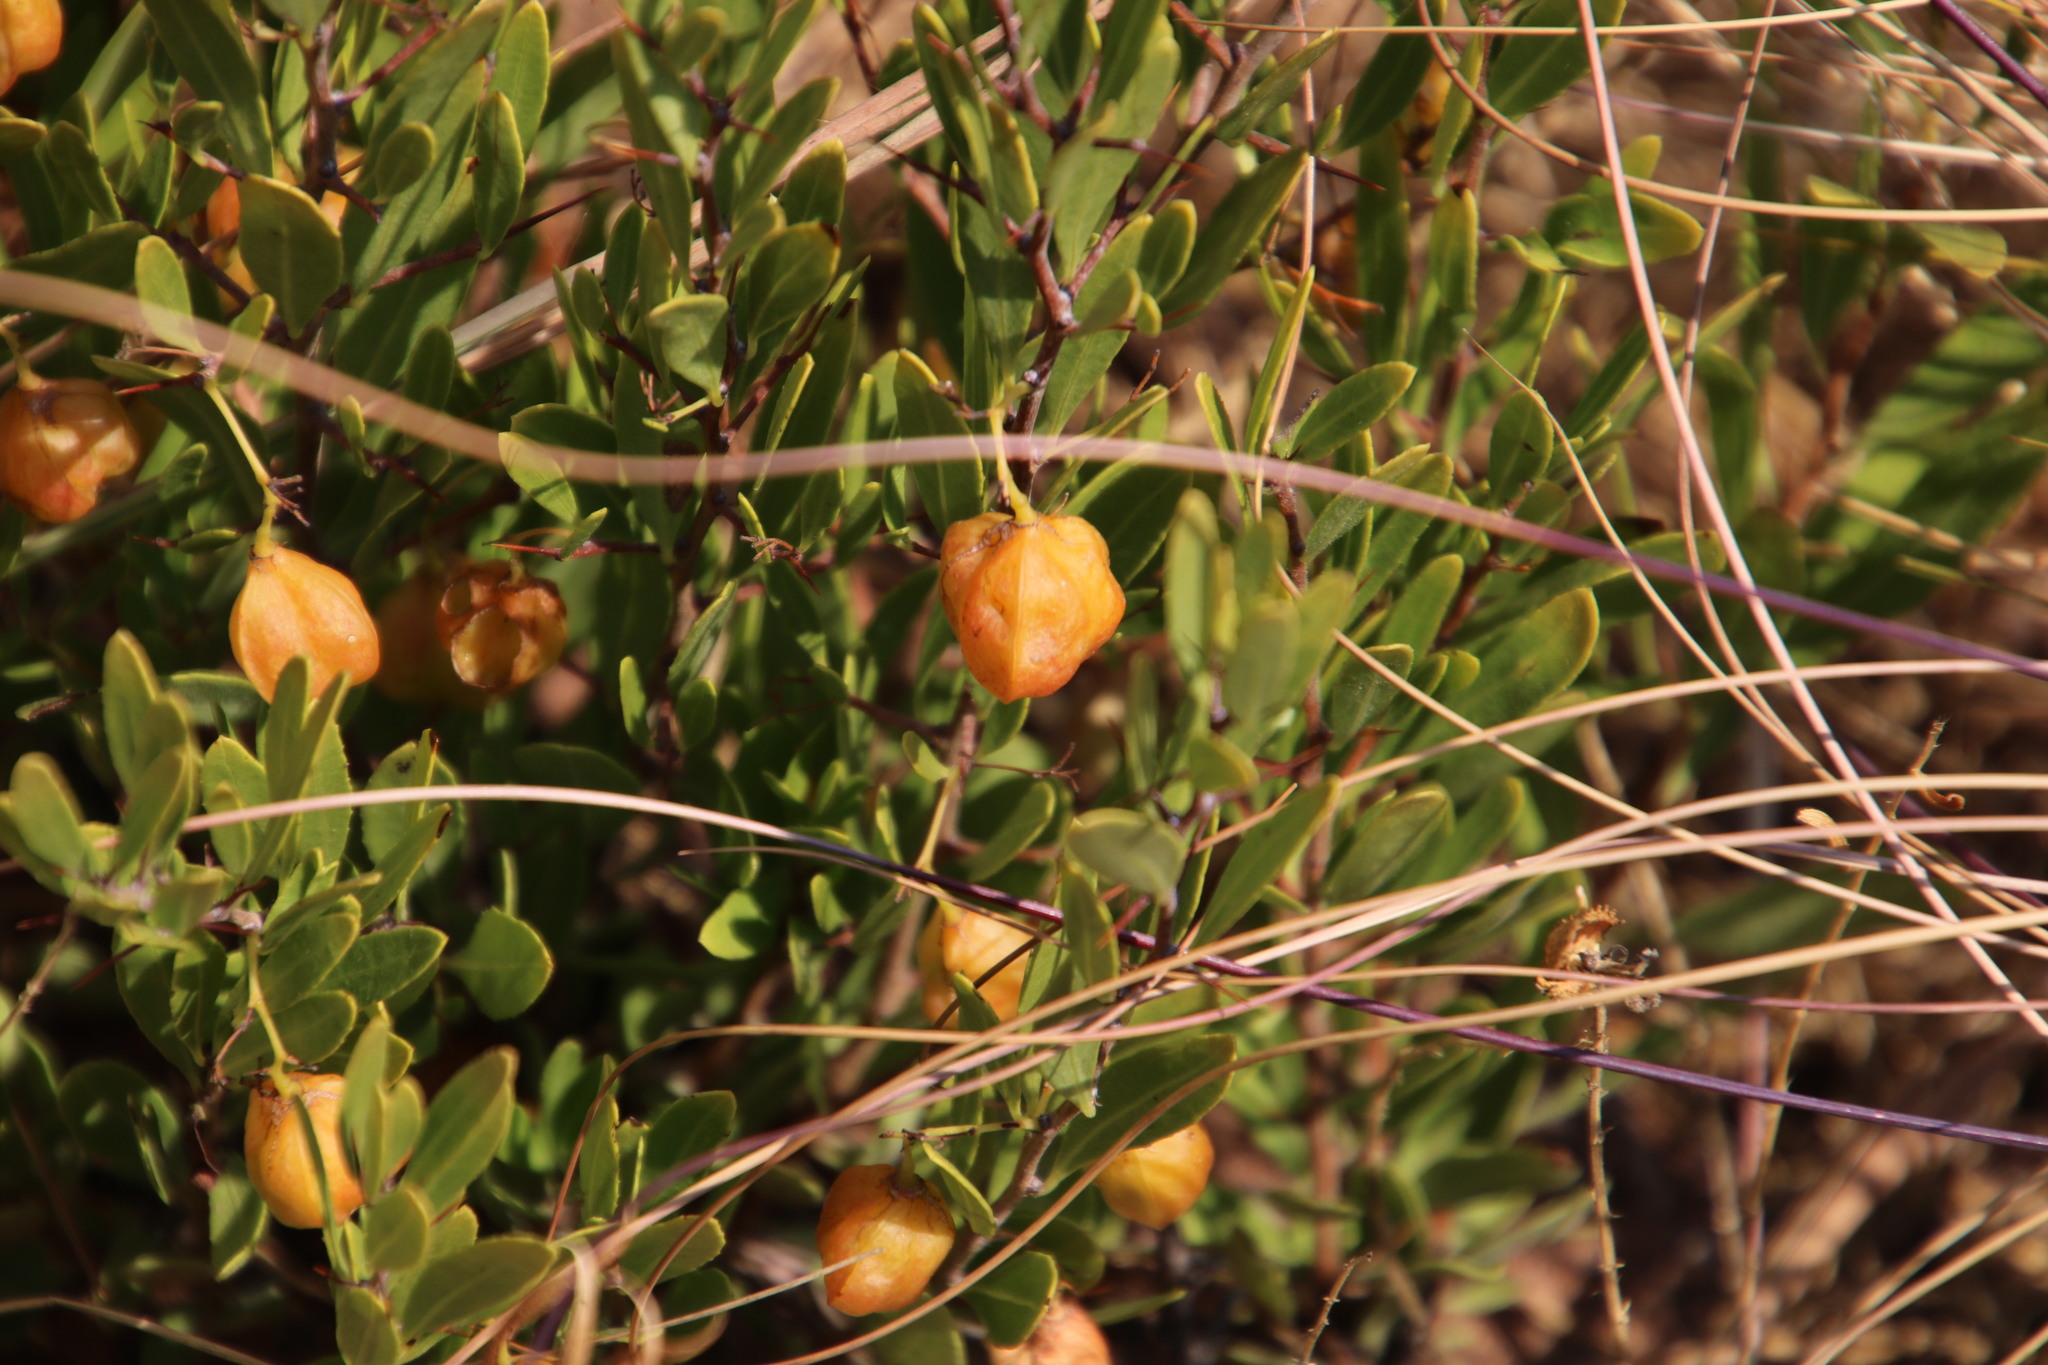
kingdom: Plantae
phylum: Tracheophyta
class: Magnoliopsida
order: Celastrales
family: Celastraceae
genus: Gymnosporia
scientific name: Gymnosporia tenuispina
